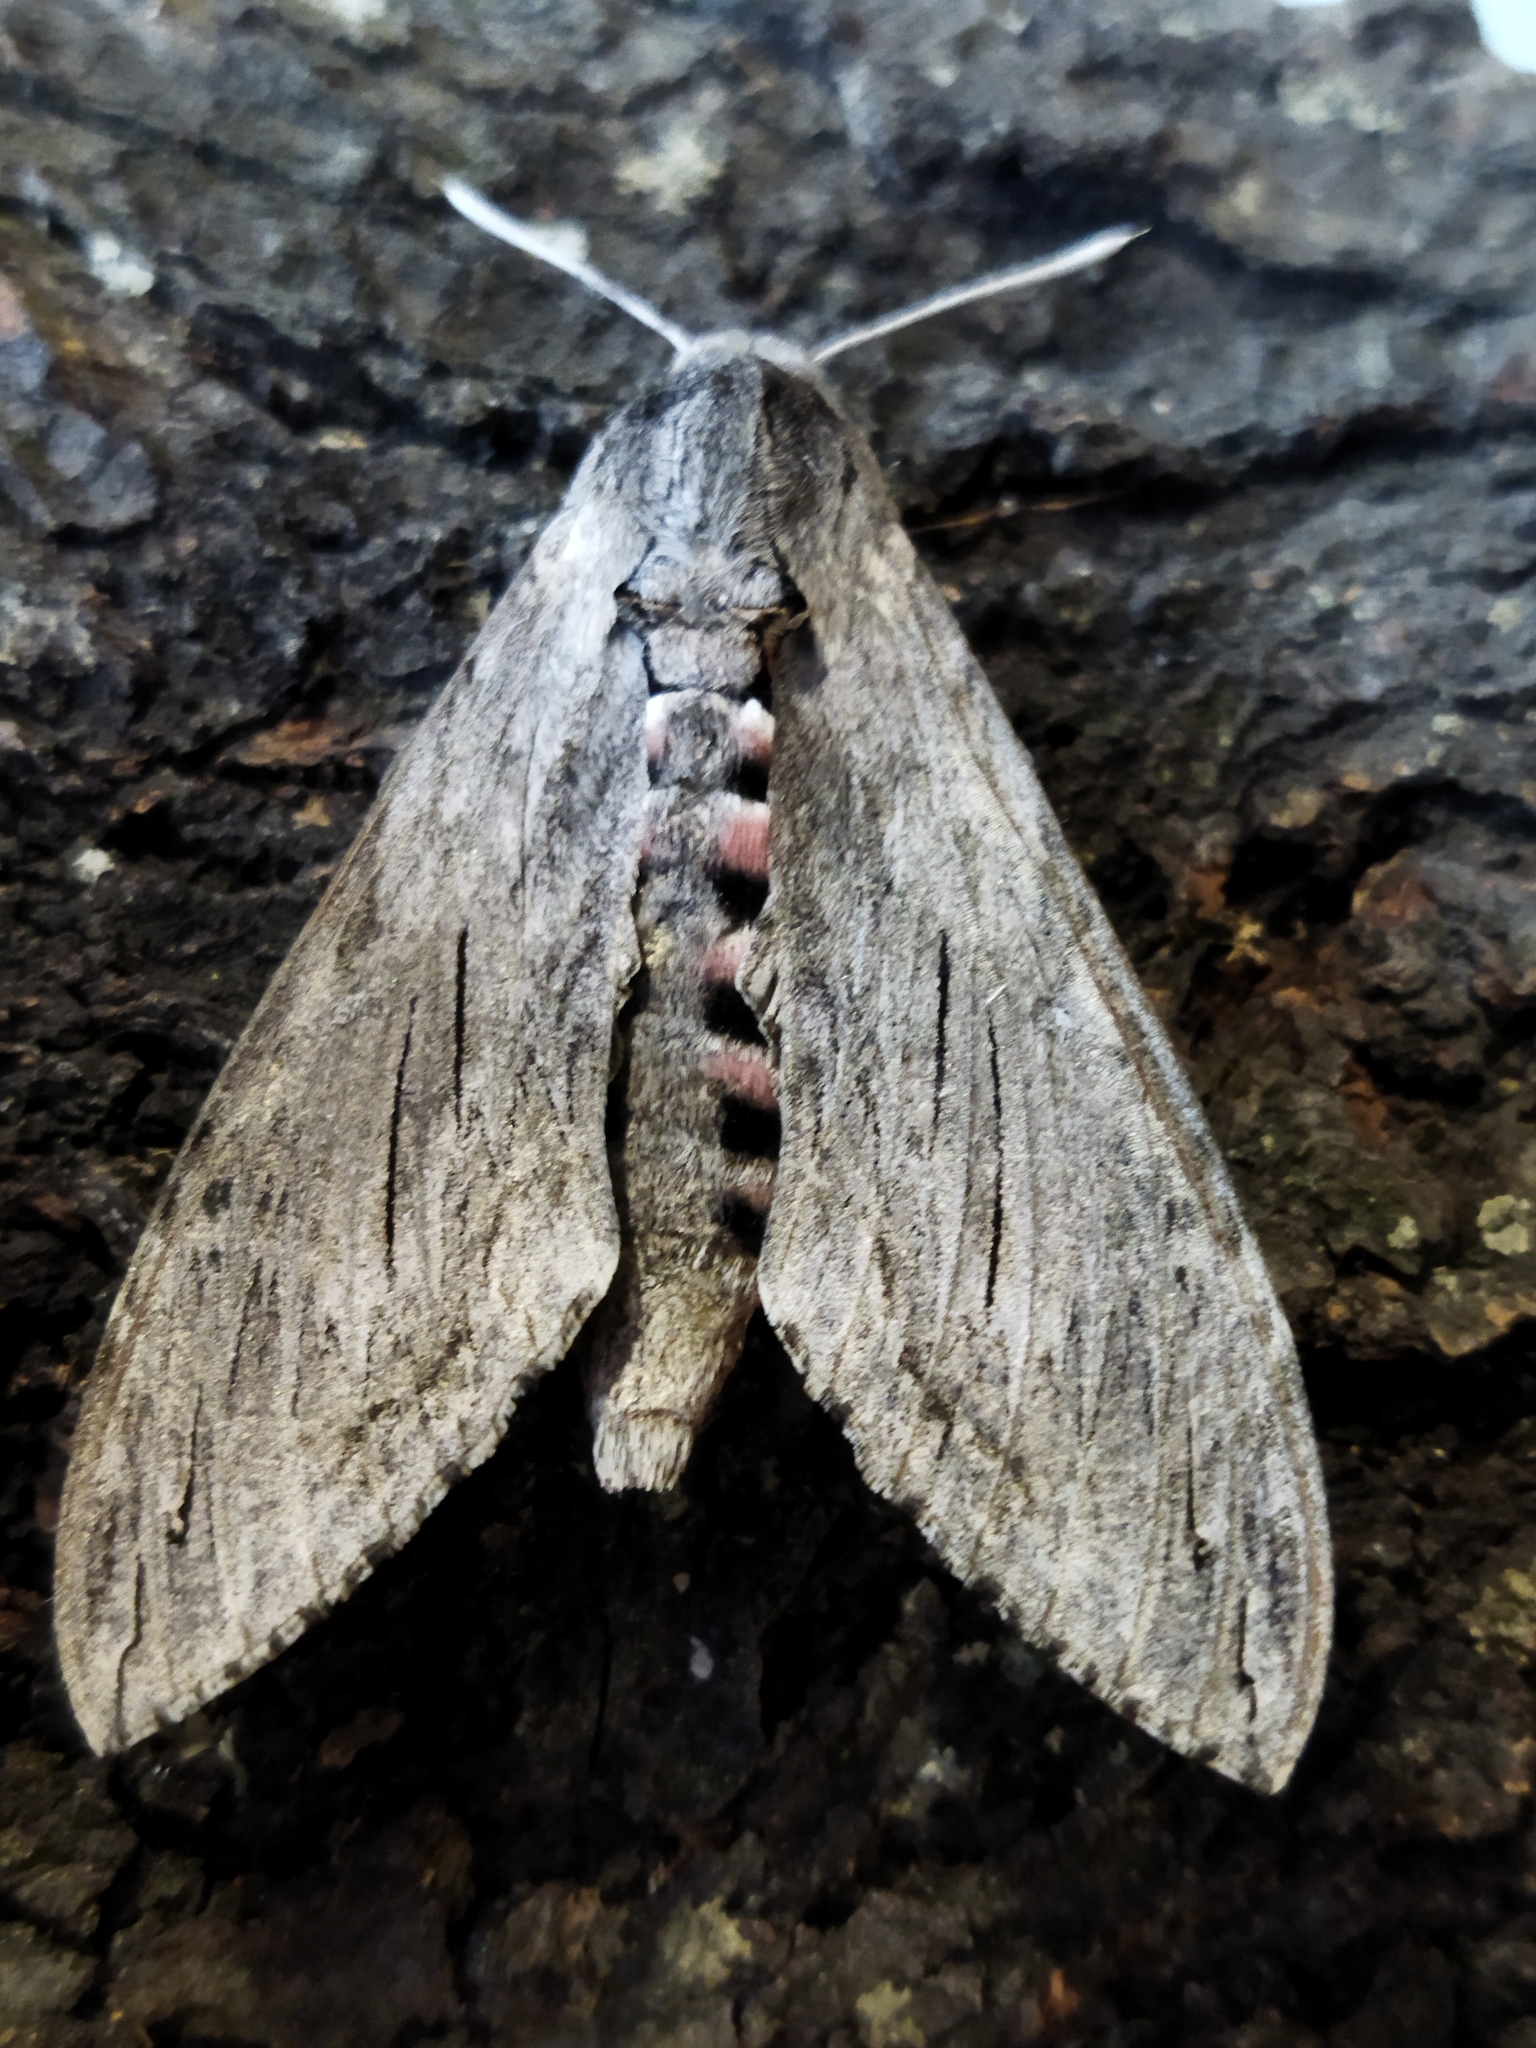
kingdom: Animalia
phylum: Arthropoda
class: Insecta
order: Lepidoptera
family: Sphingidae
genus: Agrius
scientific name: Agrius convolvuli
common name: Convolvulus hawkmoth
